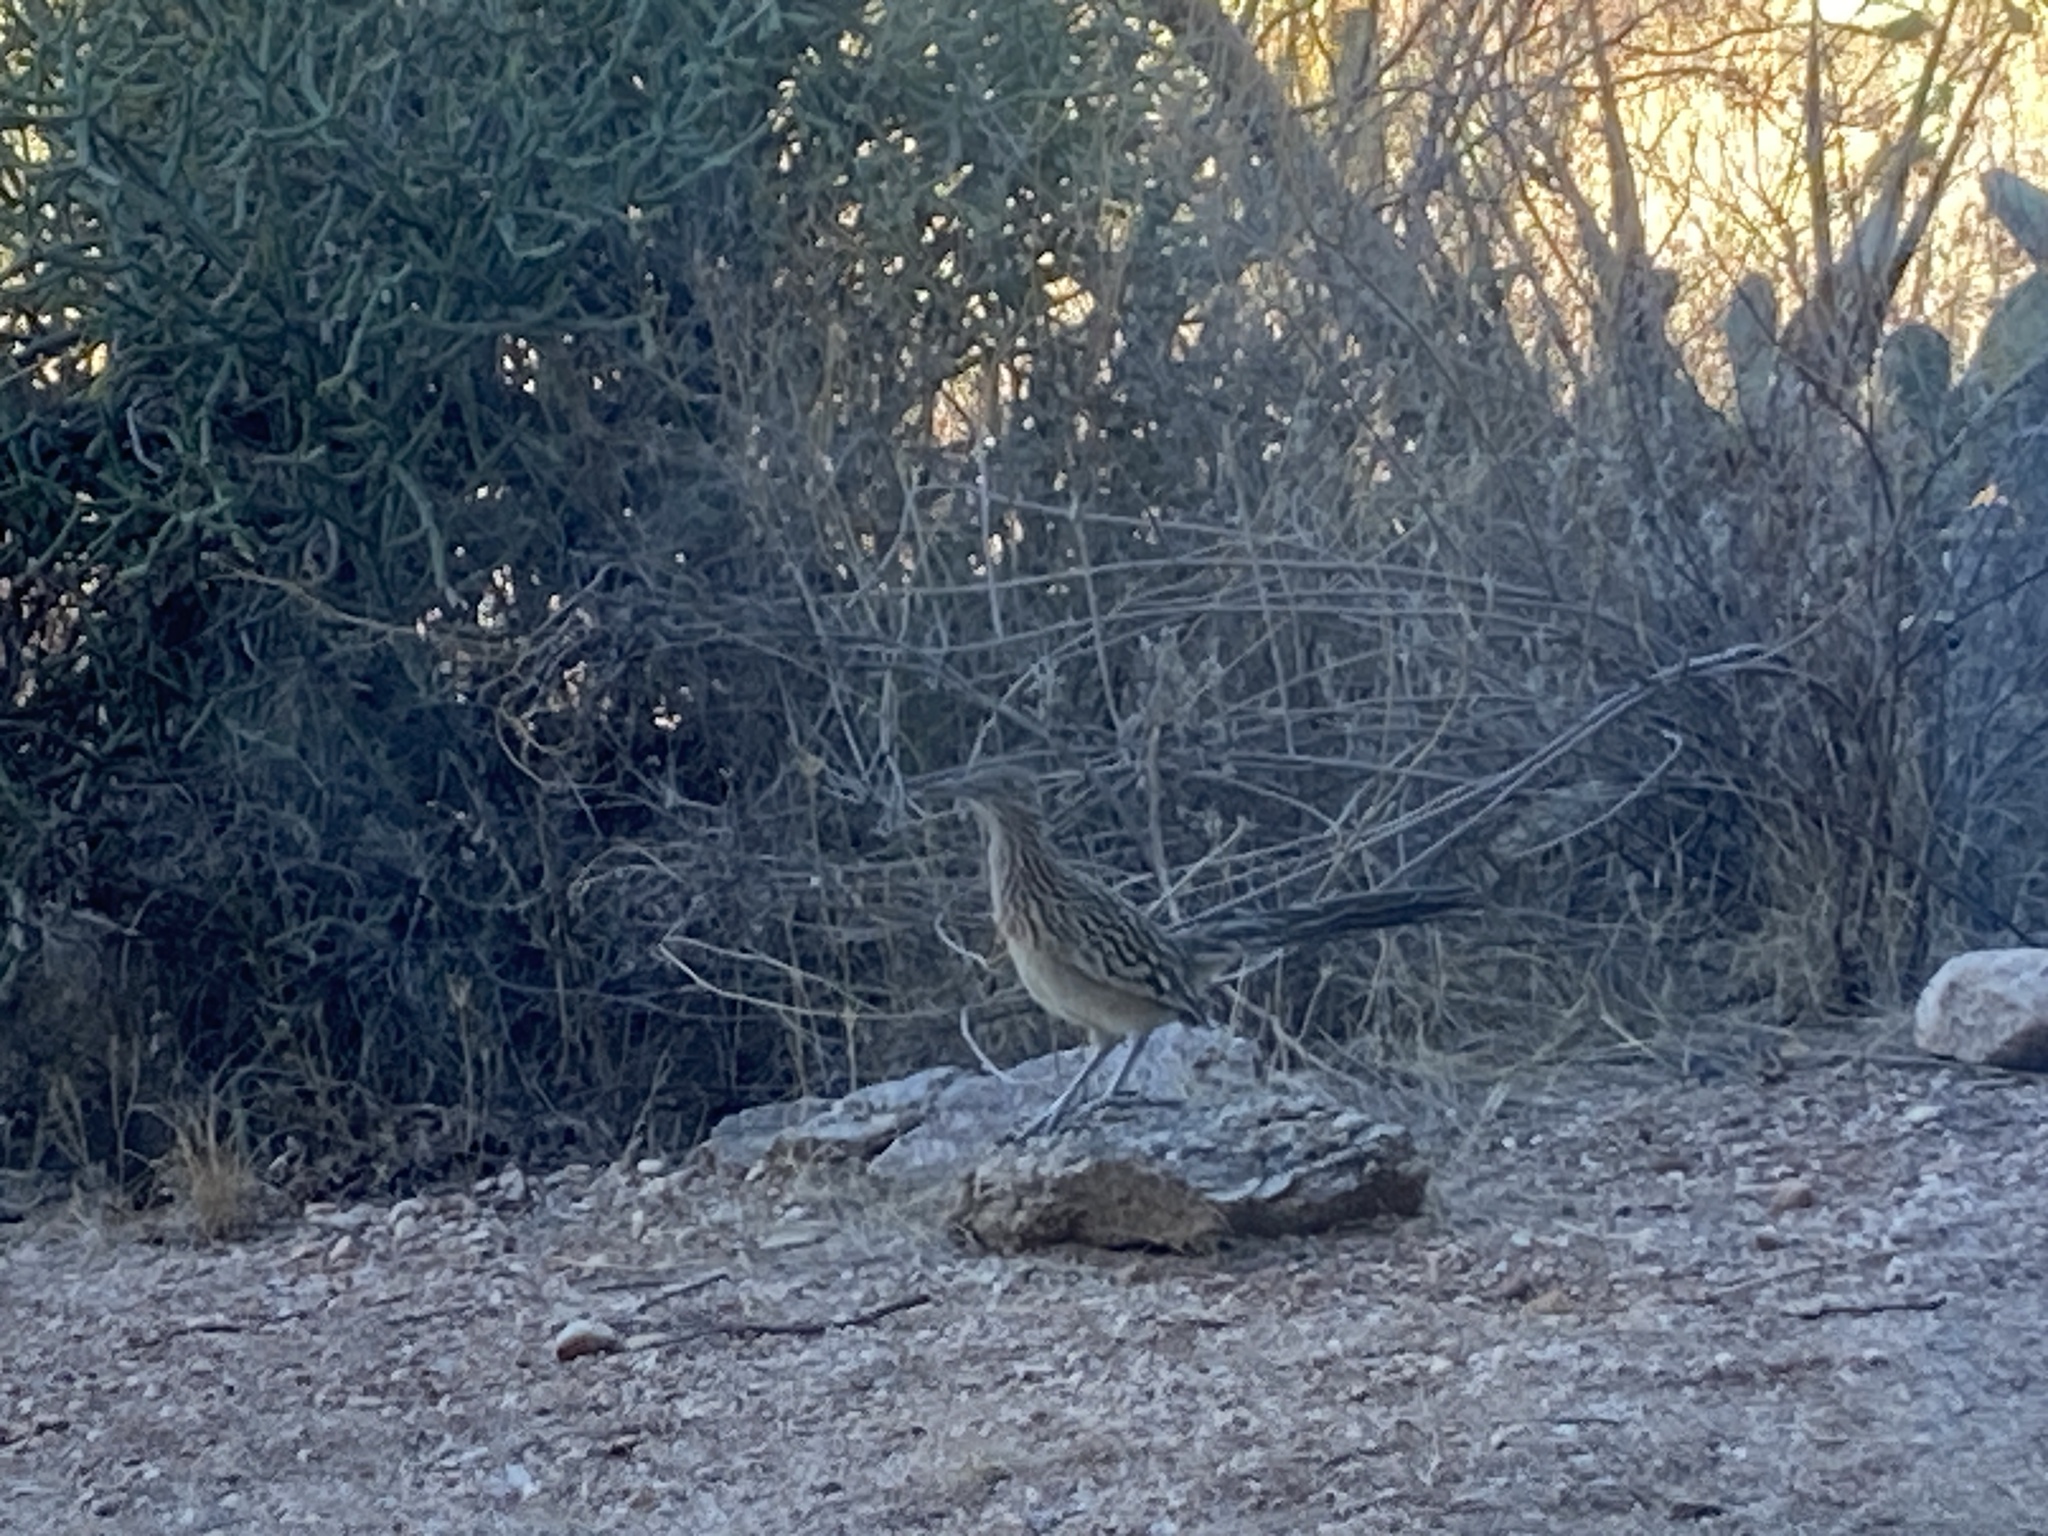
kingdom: Animalia
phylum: Chordata
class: Aves
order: Cuculiformes
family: Cuculidae
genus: Geococcyx
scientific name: Geococcyx californianus
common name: Greater roadrunner
